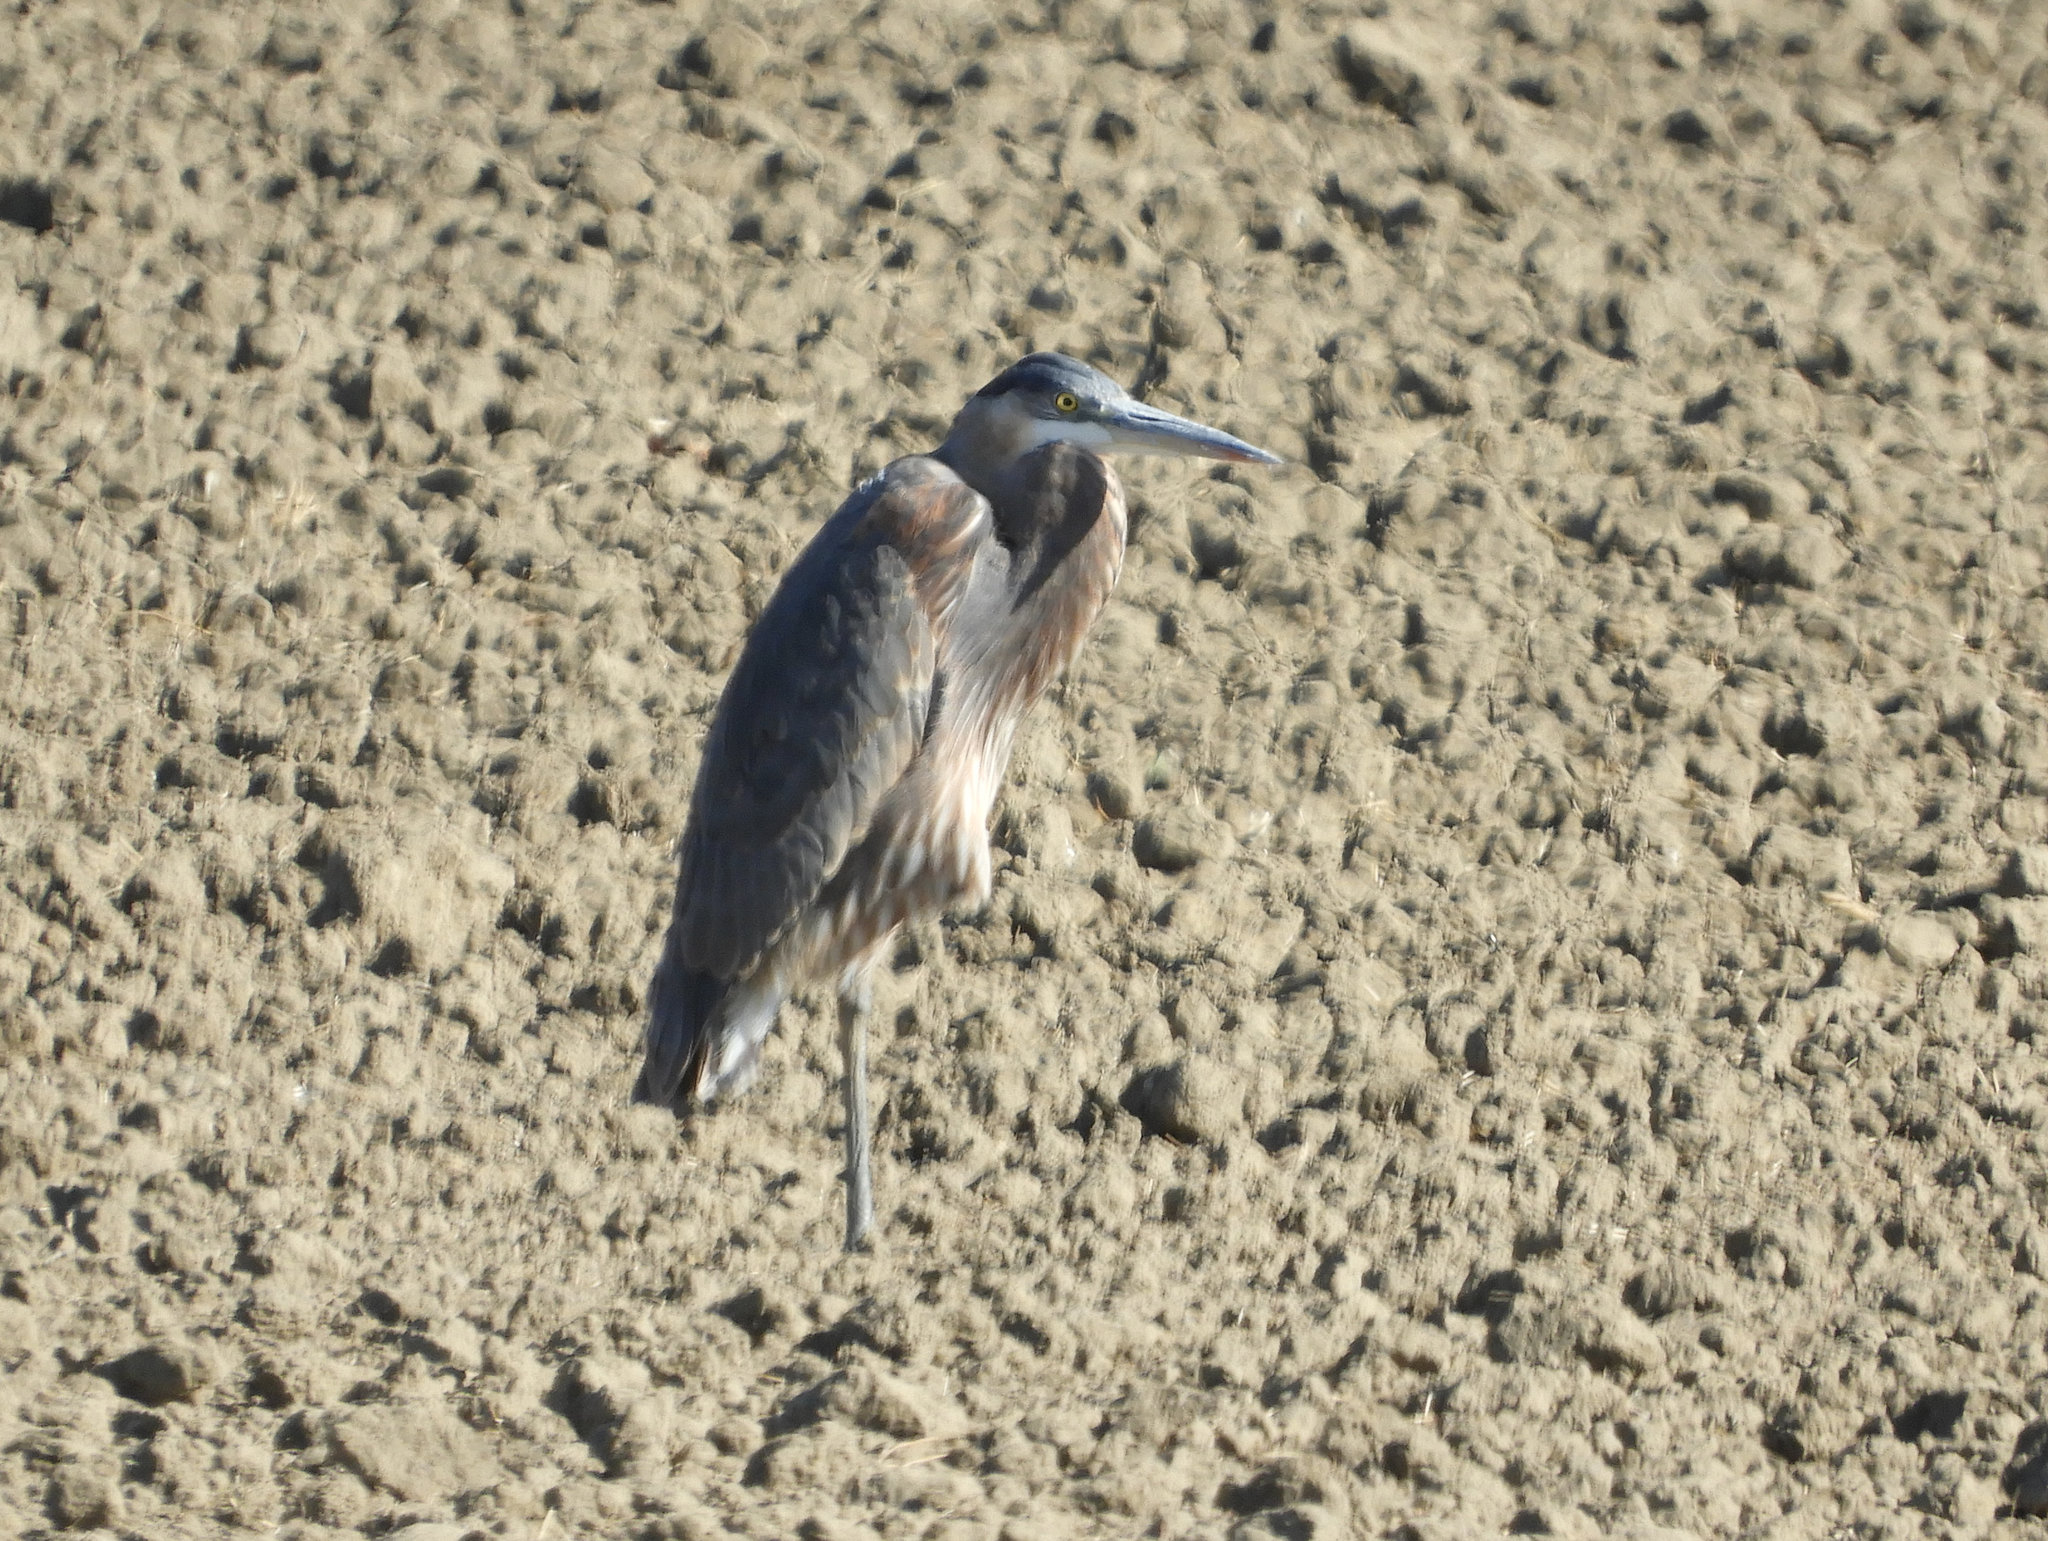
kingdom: Animalia
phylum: Chordata
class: Aves
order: Pelecaniformes
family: Ardeidae
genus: Ardea
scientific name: Ardea herodias
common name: Great blue heron
